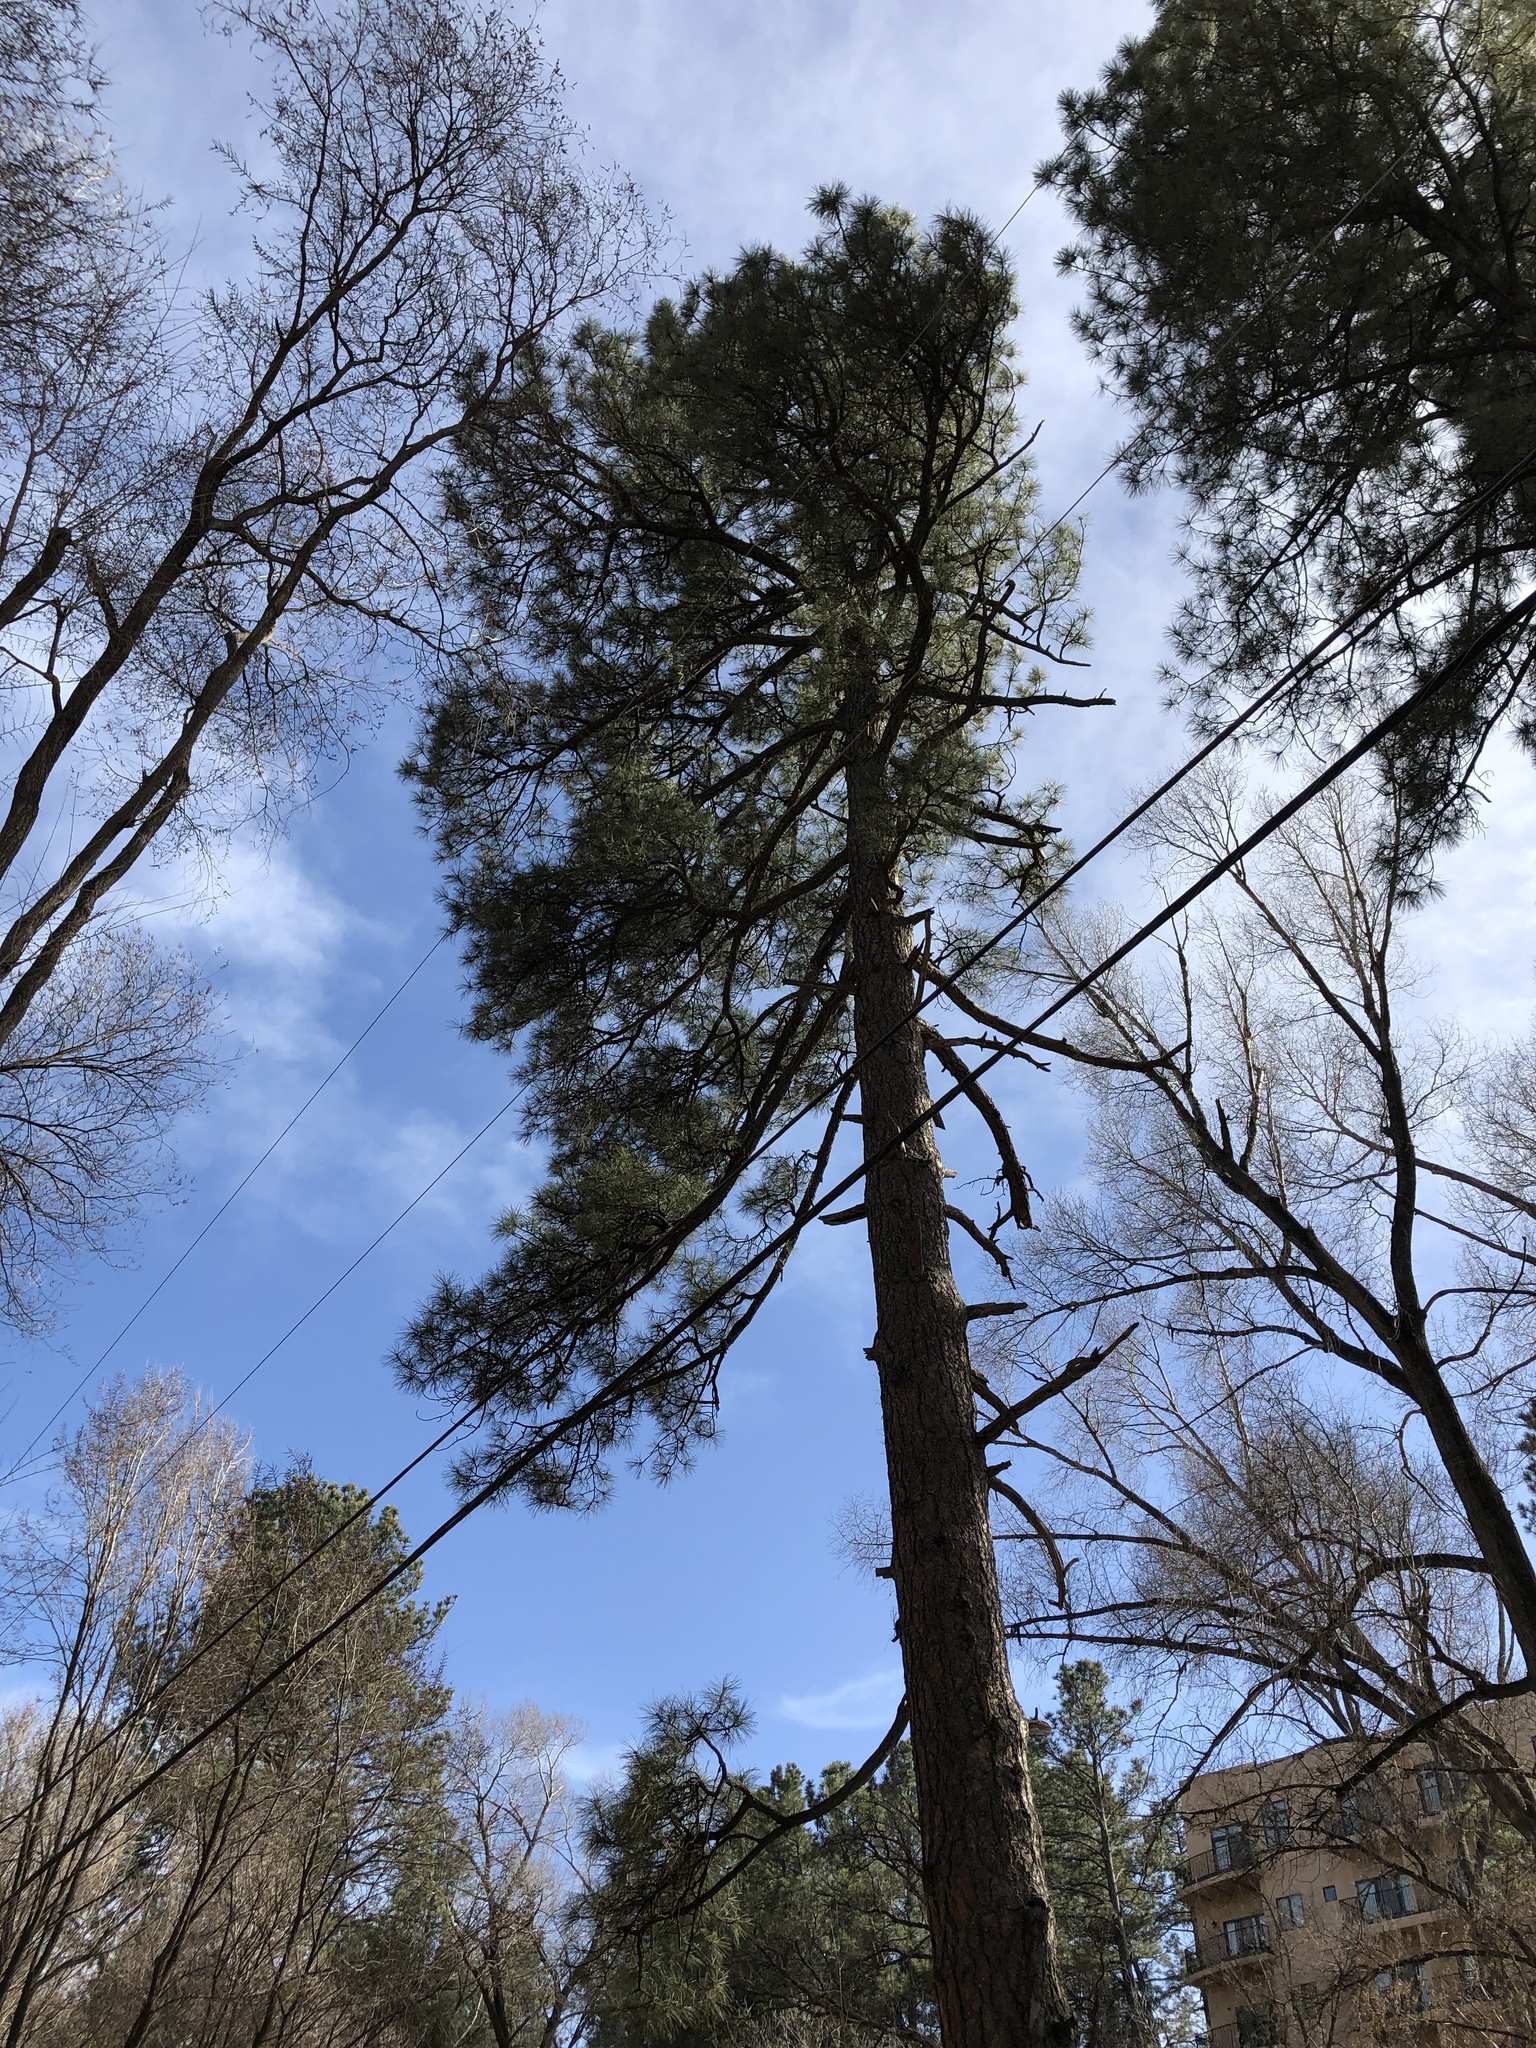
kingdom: Plantae
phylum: Tracheophyta
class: Pinopsida
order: Pinales
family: Pinaceae
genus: Pinus
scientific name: Pinus ponderosa
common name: Western yellow-pine
